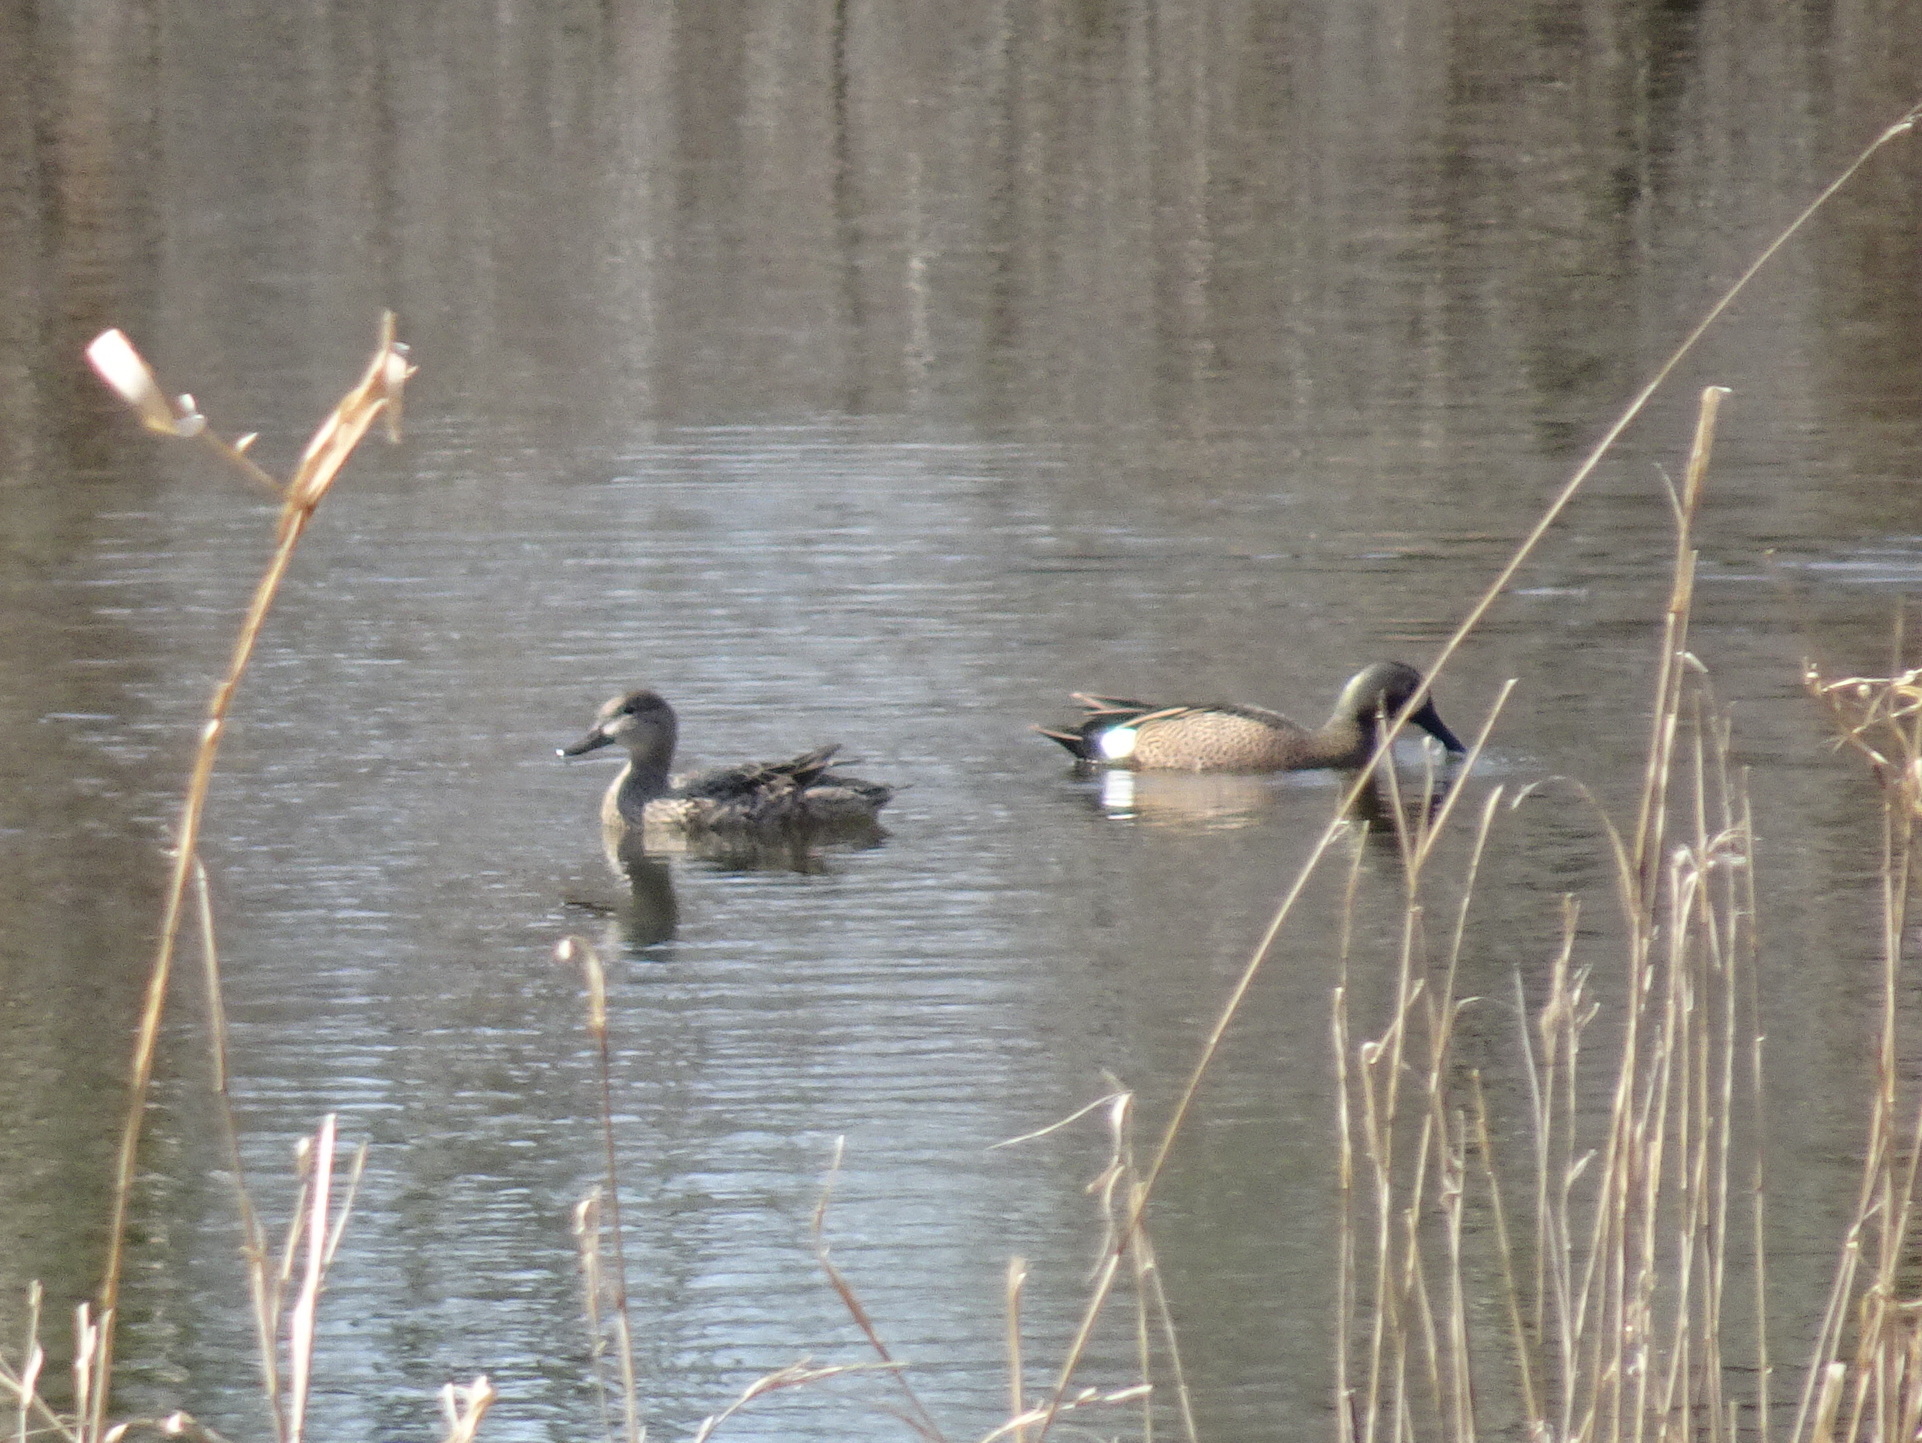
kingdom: Animalia
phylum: Chordata
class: Aves
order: Anseriformes
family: Anatidae
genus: Spatula
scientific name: Spatula discors
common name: Blue-winged teal
